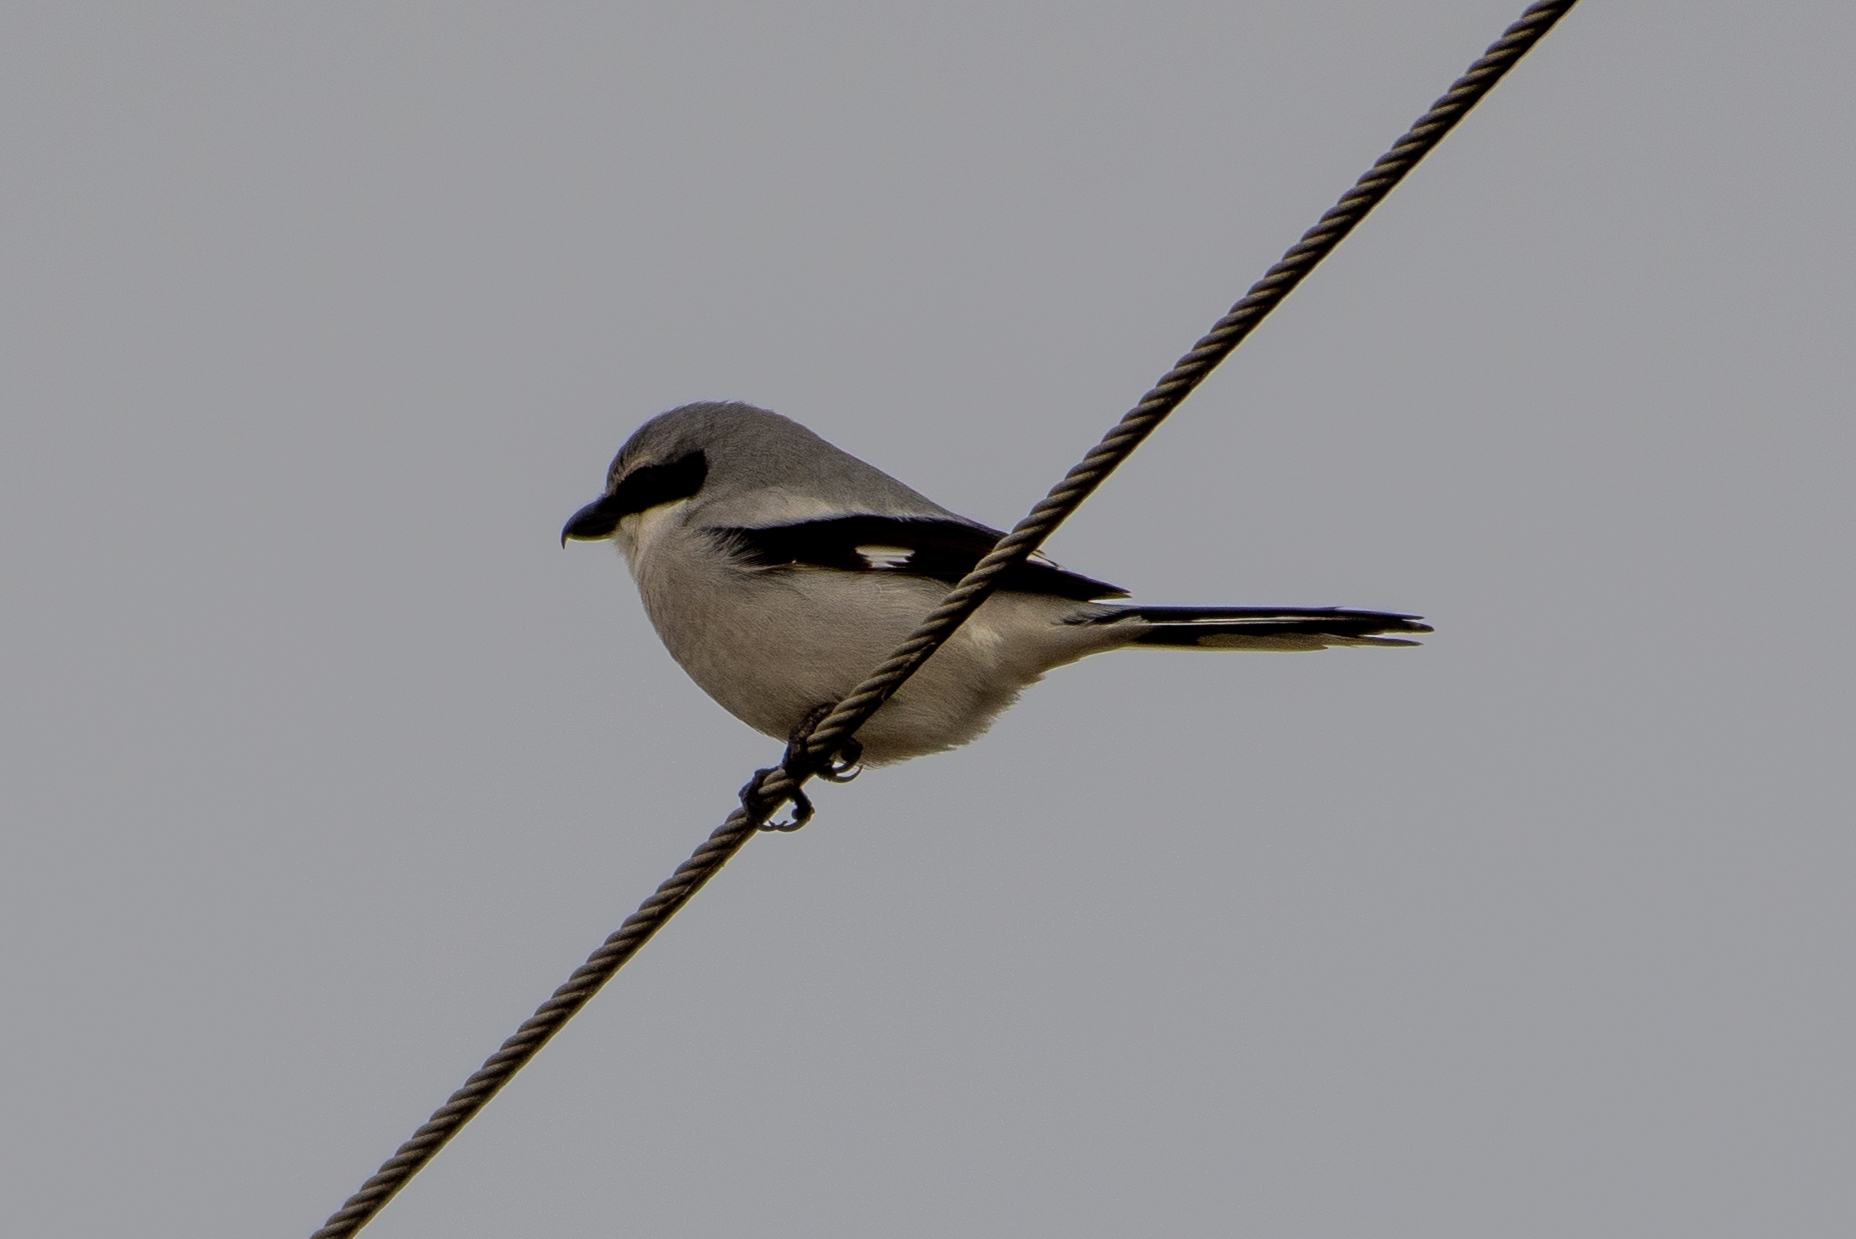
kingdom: Animalia
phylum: Chordata
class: Aves
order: Passeriformes
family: Laniidae
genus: Lanius
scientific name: Lanius ludovicianus
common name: Loggerhead shrike
